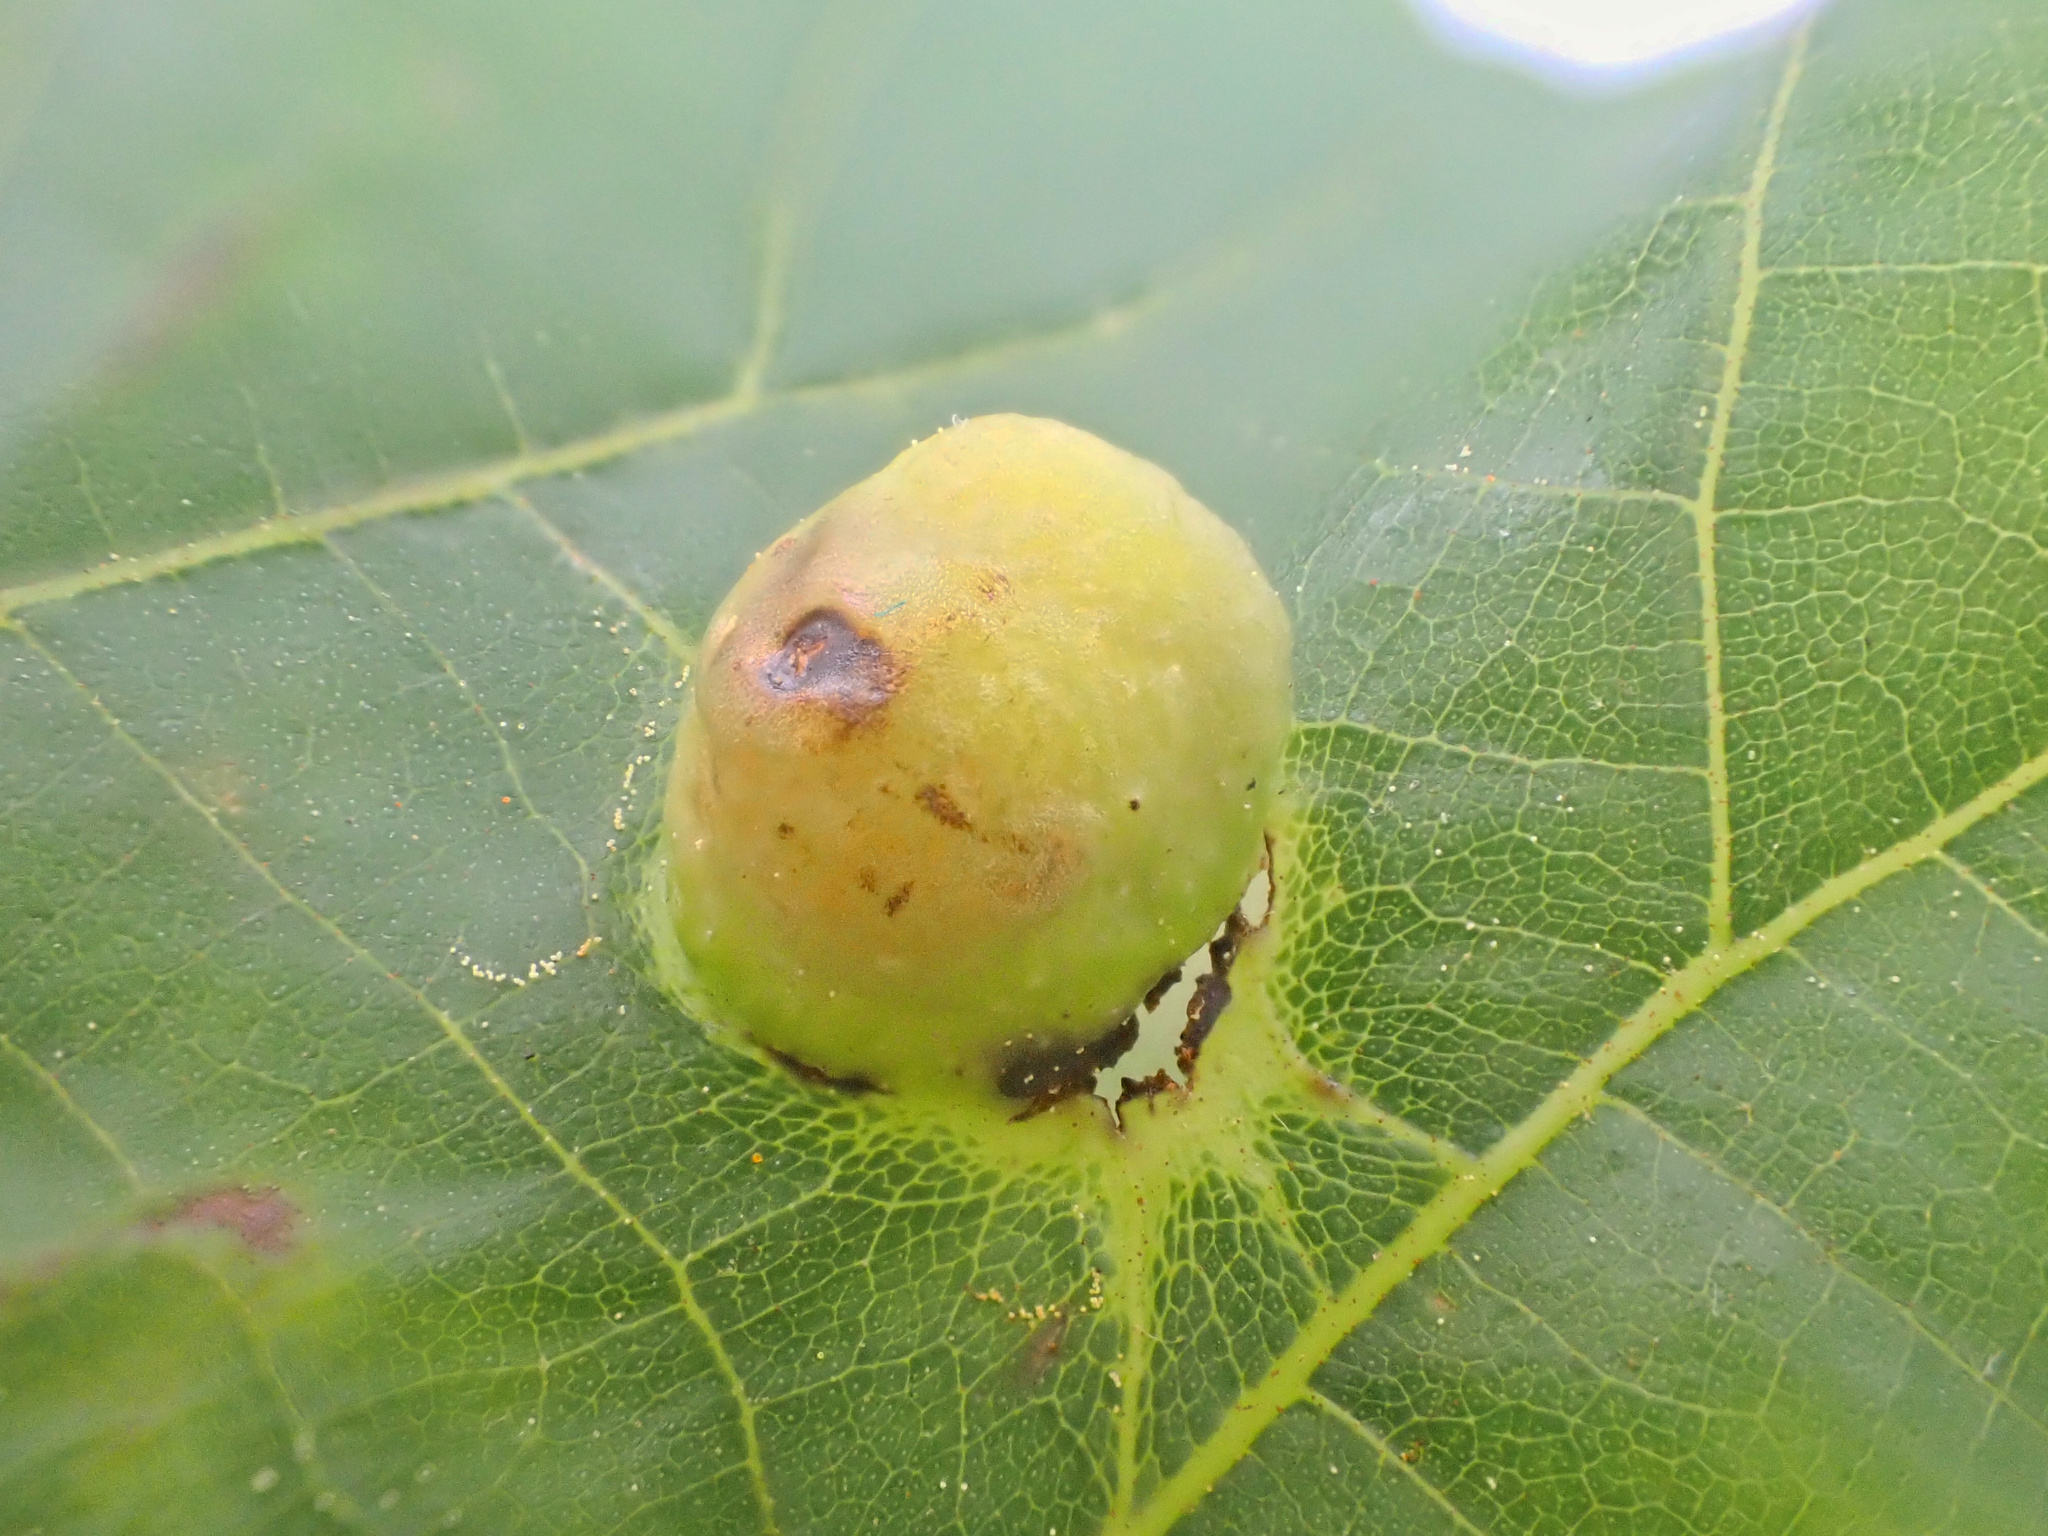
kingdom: Animalia
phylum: Arthropoda
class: Insecta
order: Hemiptera
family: Phylloxeridae
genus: Phylloxera
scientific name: Phylloxera caryae-globuli
